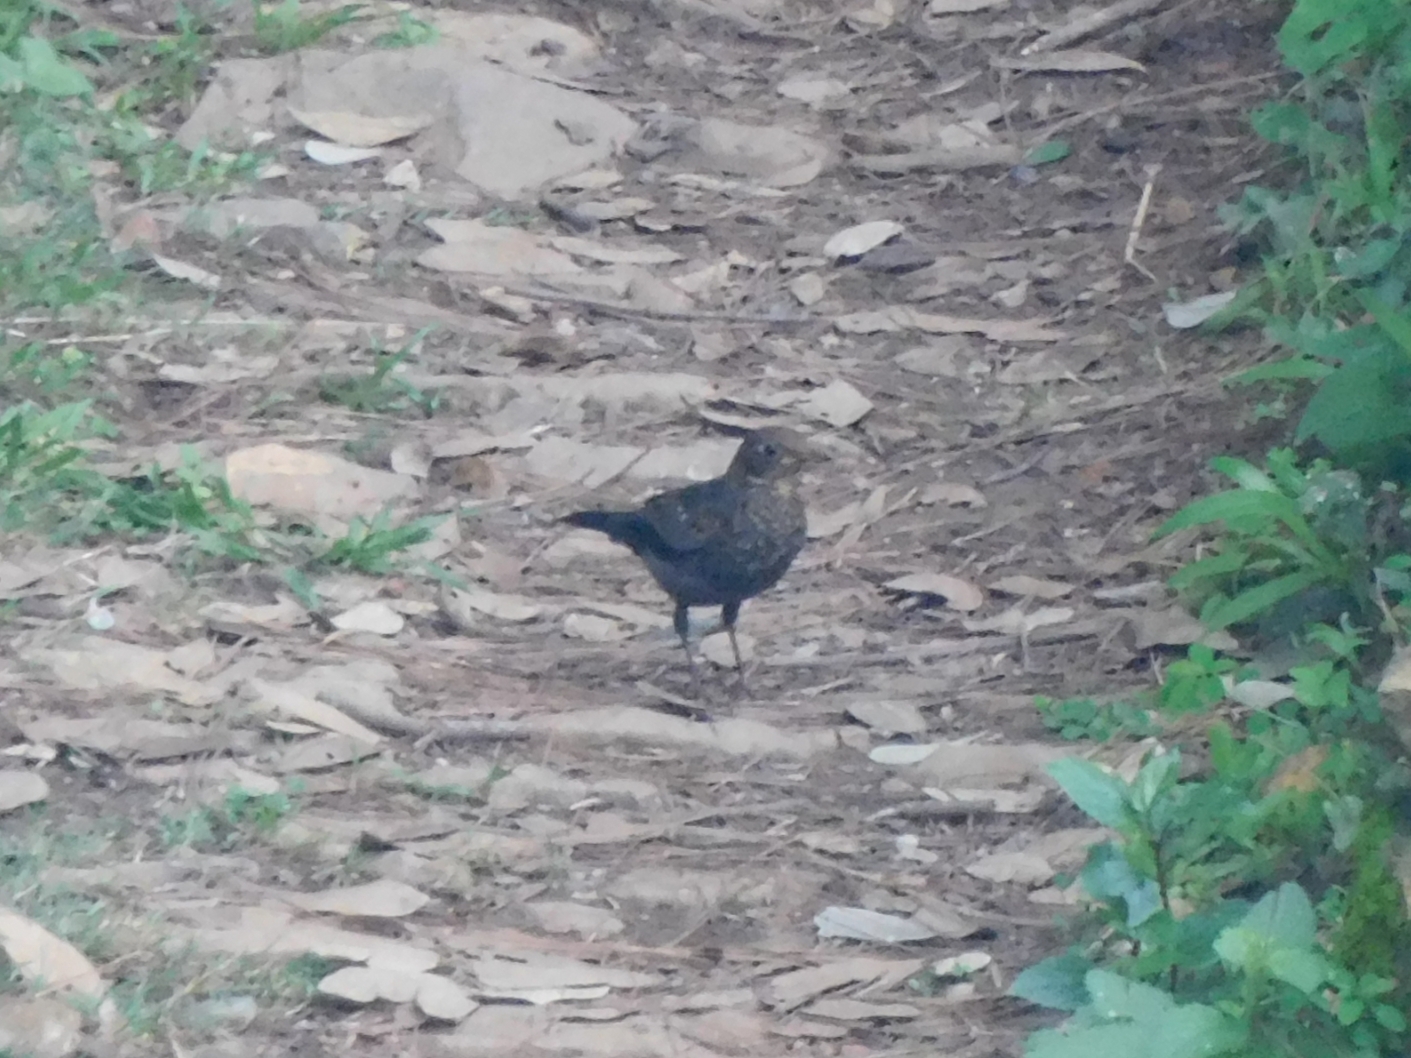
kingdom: Animalia
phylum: Chordata
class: Aves
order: Passeriformes
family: Turdidae
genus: Turdus
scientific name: Turdus boulboul
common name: Grey-winged blackbird
